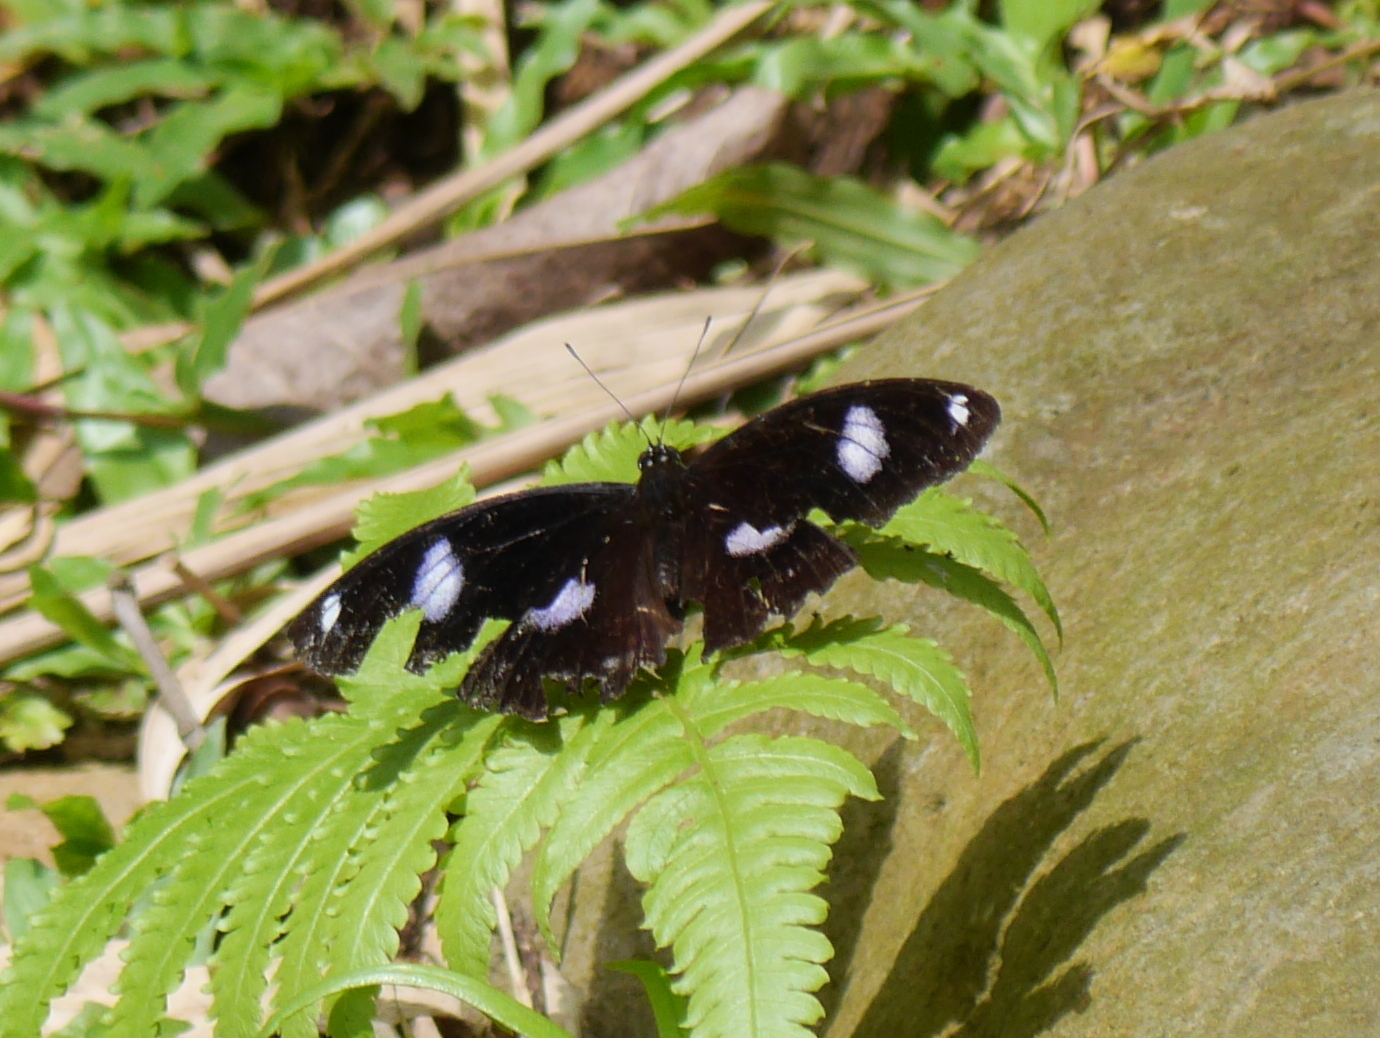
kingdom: Animalia
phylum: Arthropoda
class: Insecta
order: Lepidoptera
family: Nymphalidae
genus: Hypolimnas
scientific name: Hypolimnas bolina
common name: Great eggfly
